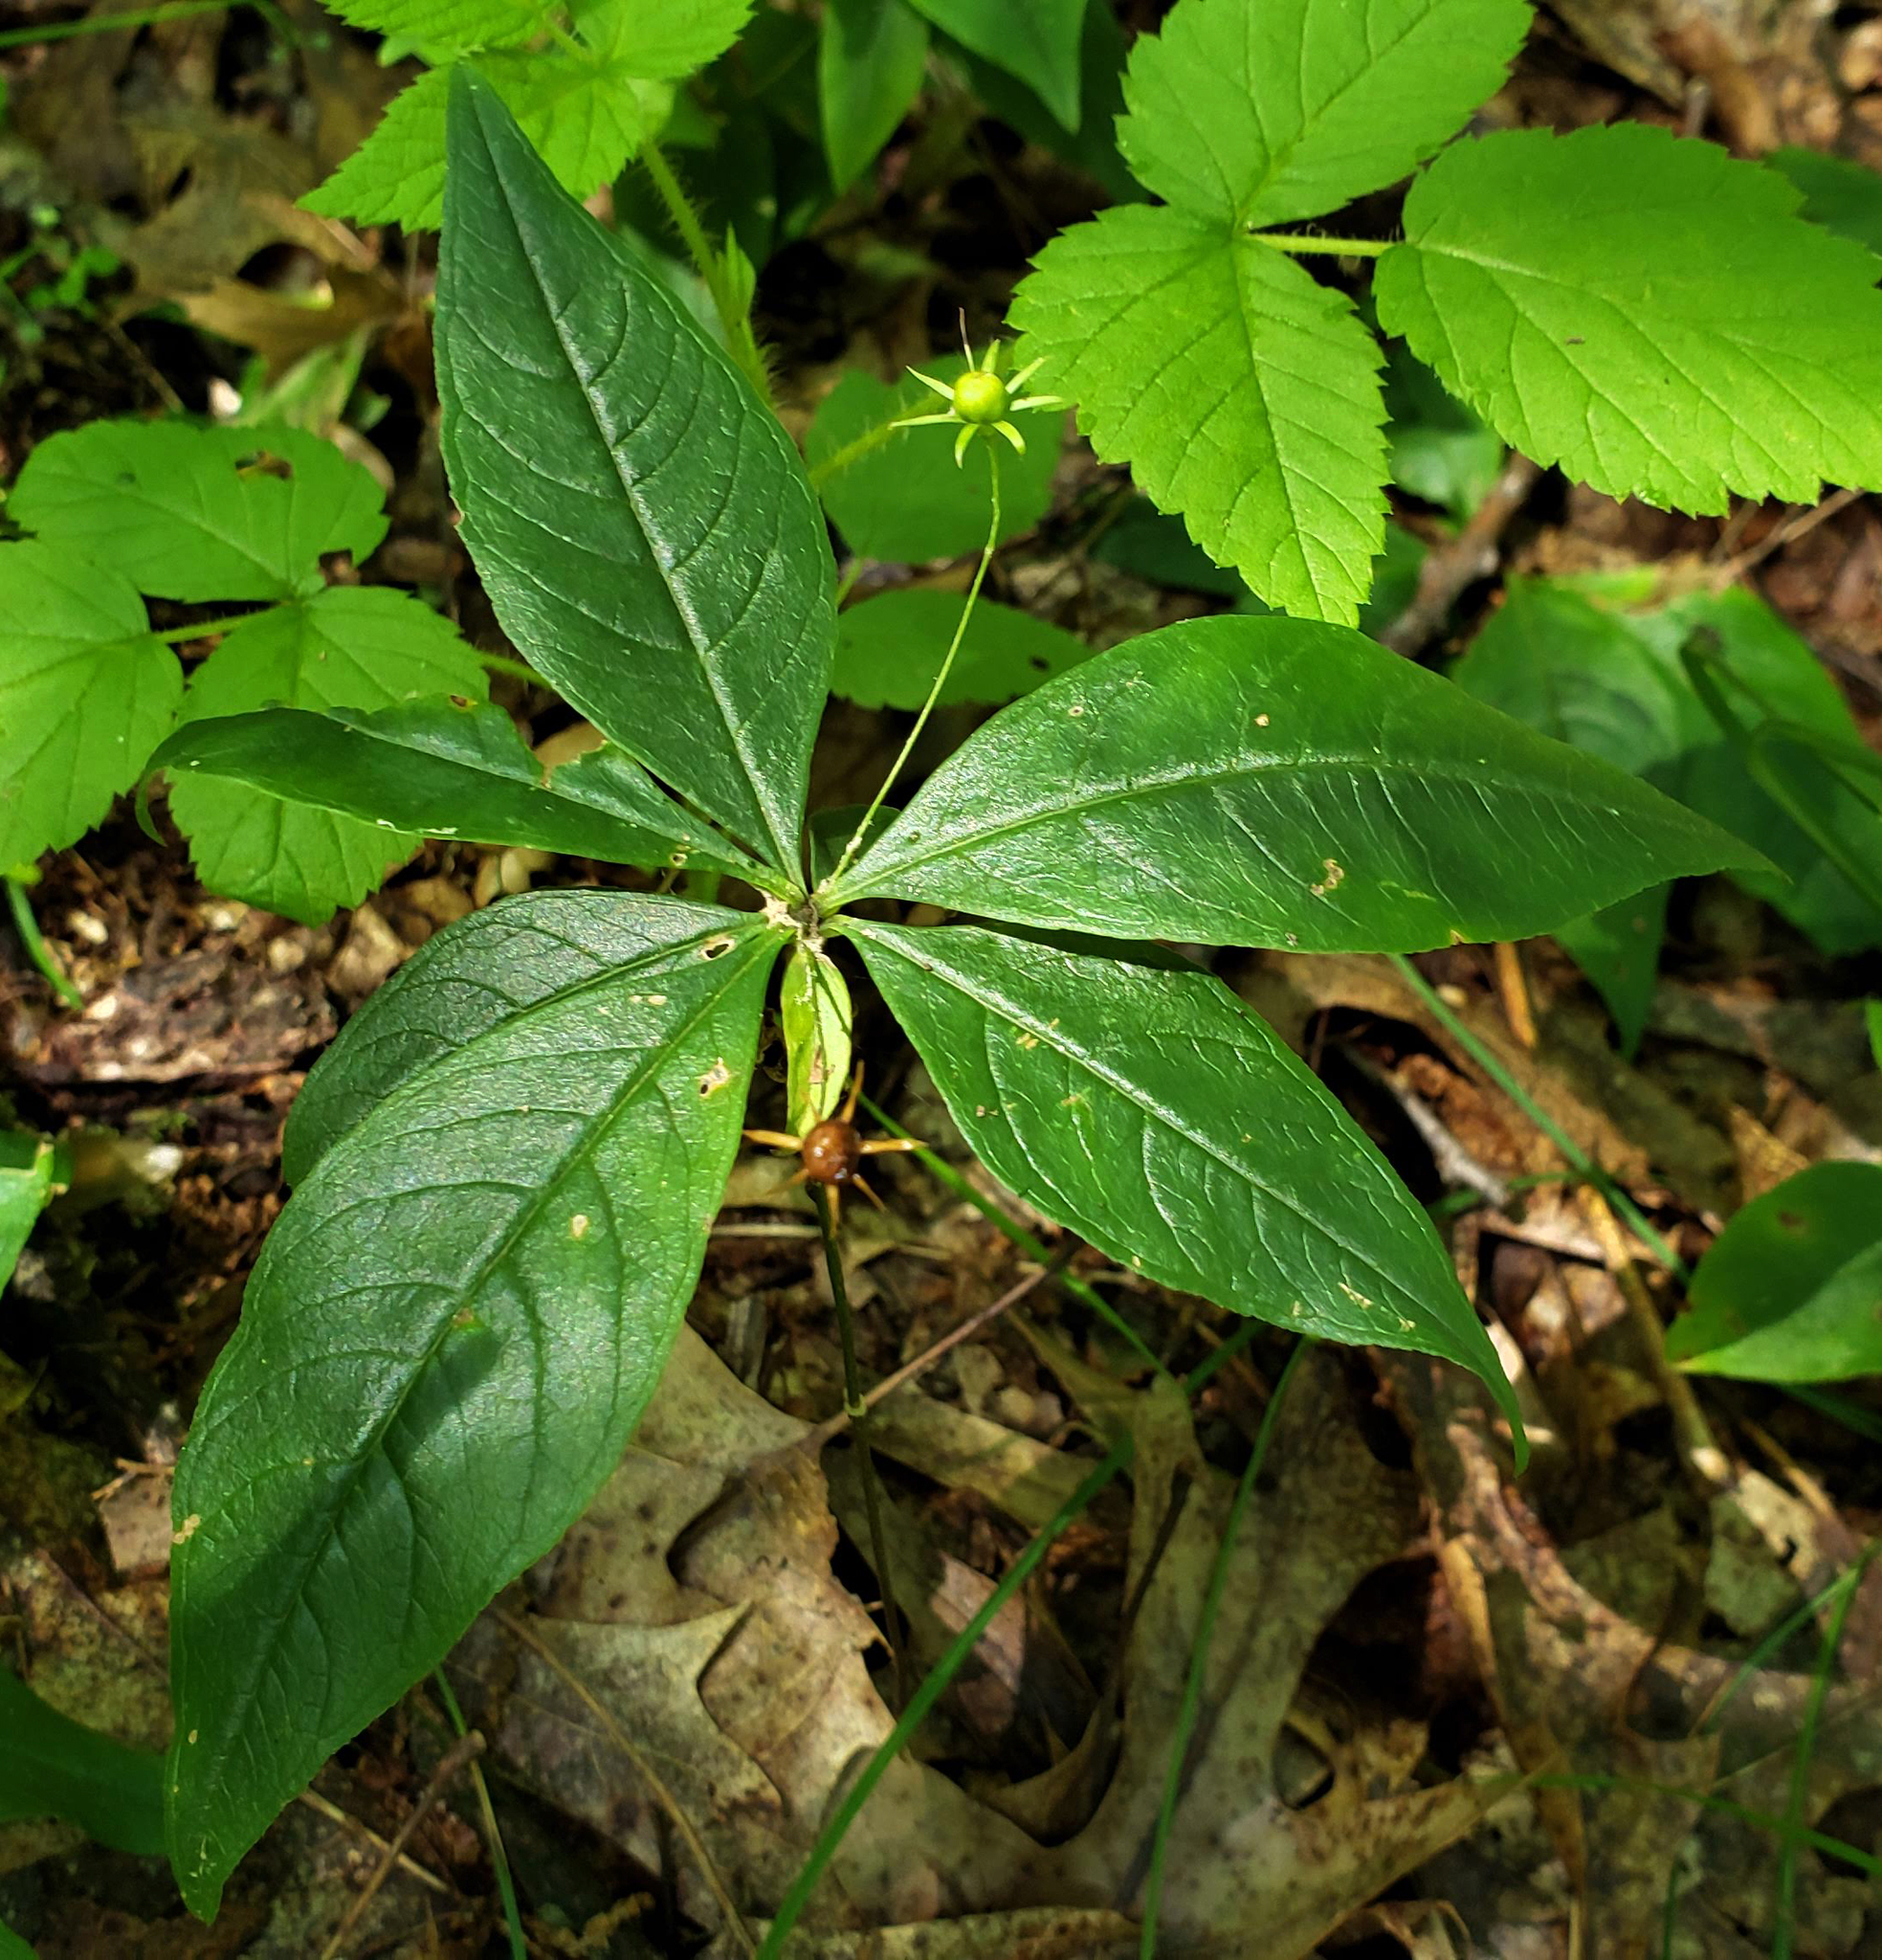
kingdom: Plantae
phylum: Tracheophyta
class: Magnoliopsida
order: Ericales
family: Primulaceae
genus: Lysimachia
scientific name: Lysimachia borealis
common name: American starflower
